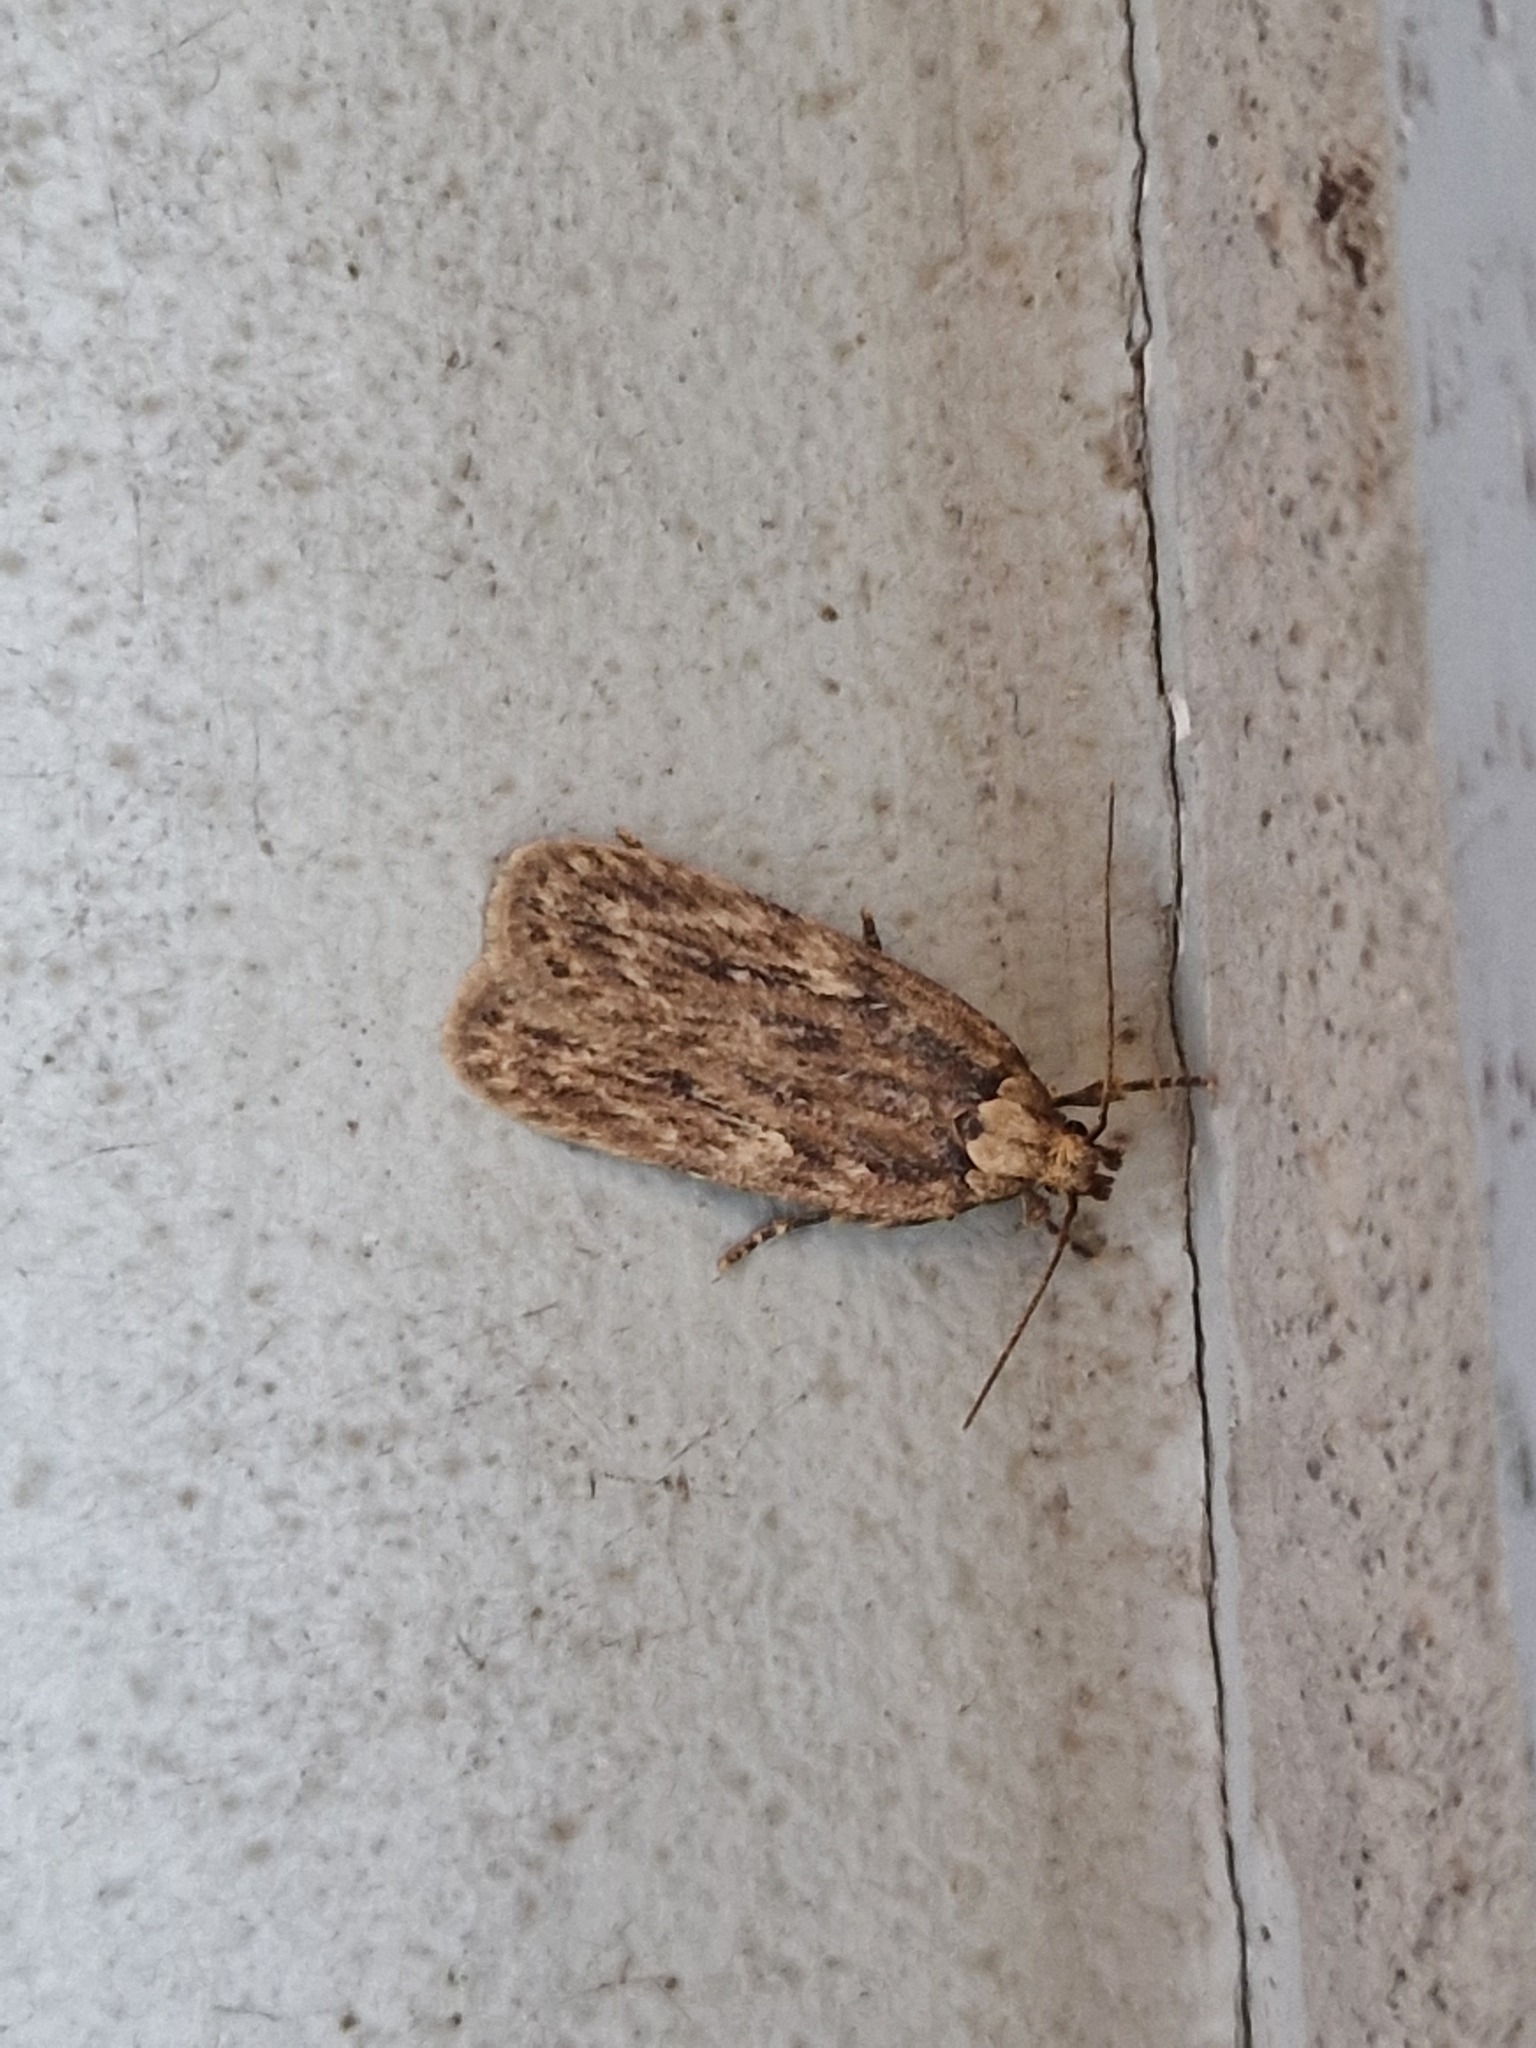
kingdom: Animalia
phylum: Arthropoda
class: Insecta
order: Lepidoptera
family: Oecophoridae
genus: Hofmannophila
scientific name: Hofmannophila pseudospretella
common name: Brown house moth
